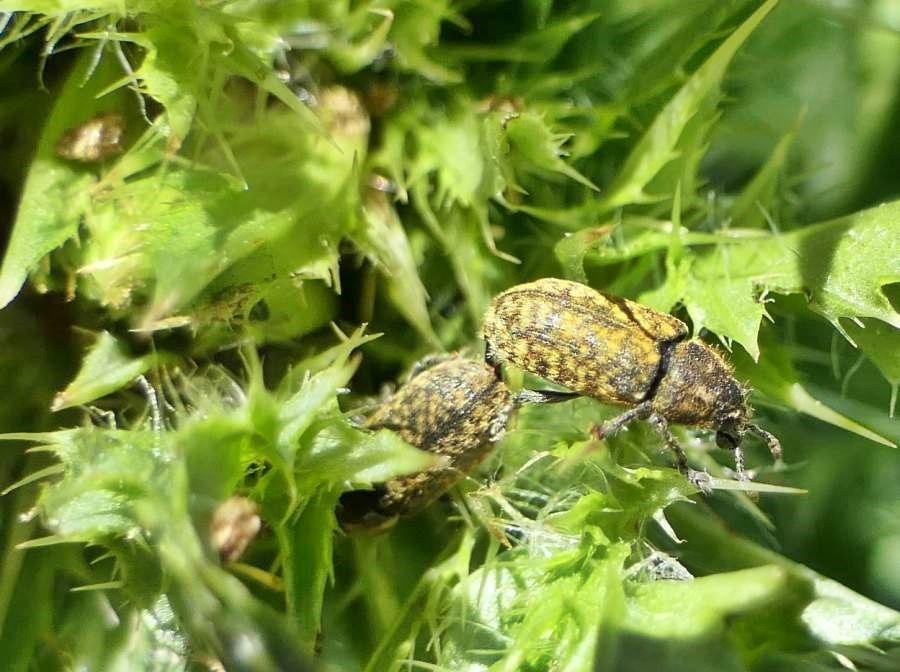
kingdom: Animalia
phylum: Arthropoda
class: Insecta
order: Coleoptera
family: Curculionidae
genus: Rhinocyllus
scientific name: Rhinocyllus conicus
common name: Weevil
